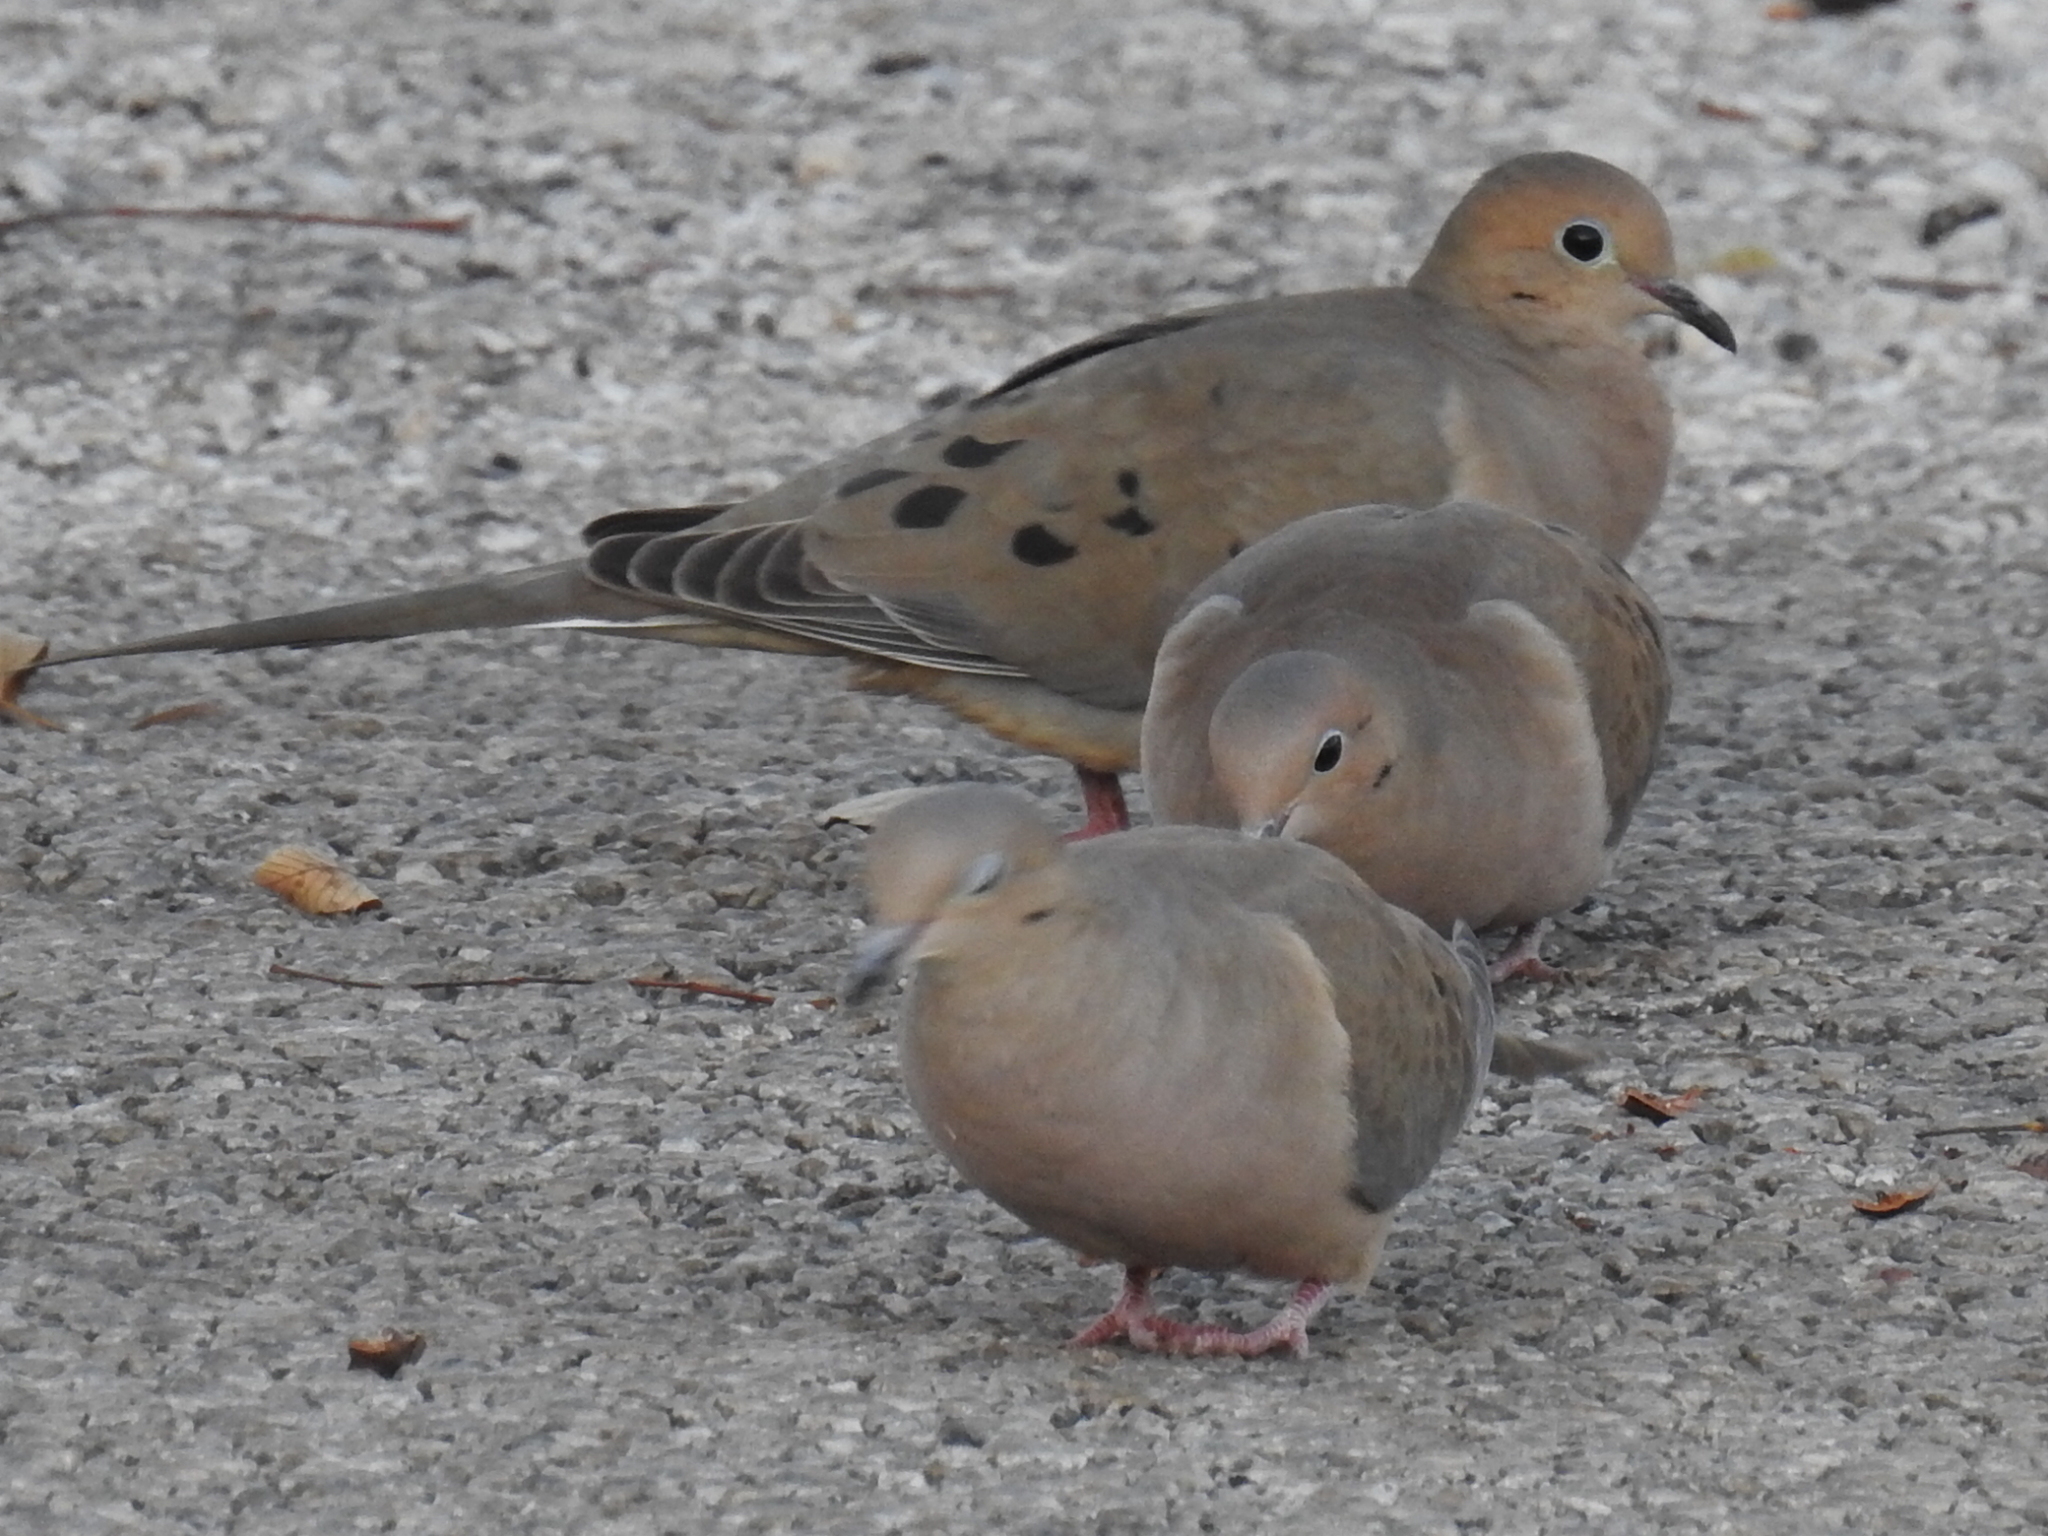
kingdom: Animalia
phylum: Chordata
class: Aves
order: Columbiformes
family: Columbidae
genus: Zenaida
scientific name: Zenaida macroura
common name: Mourning dove
